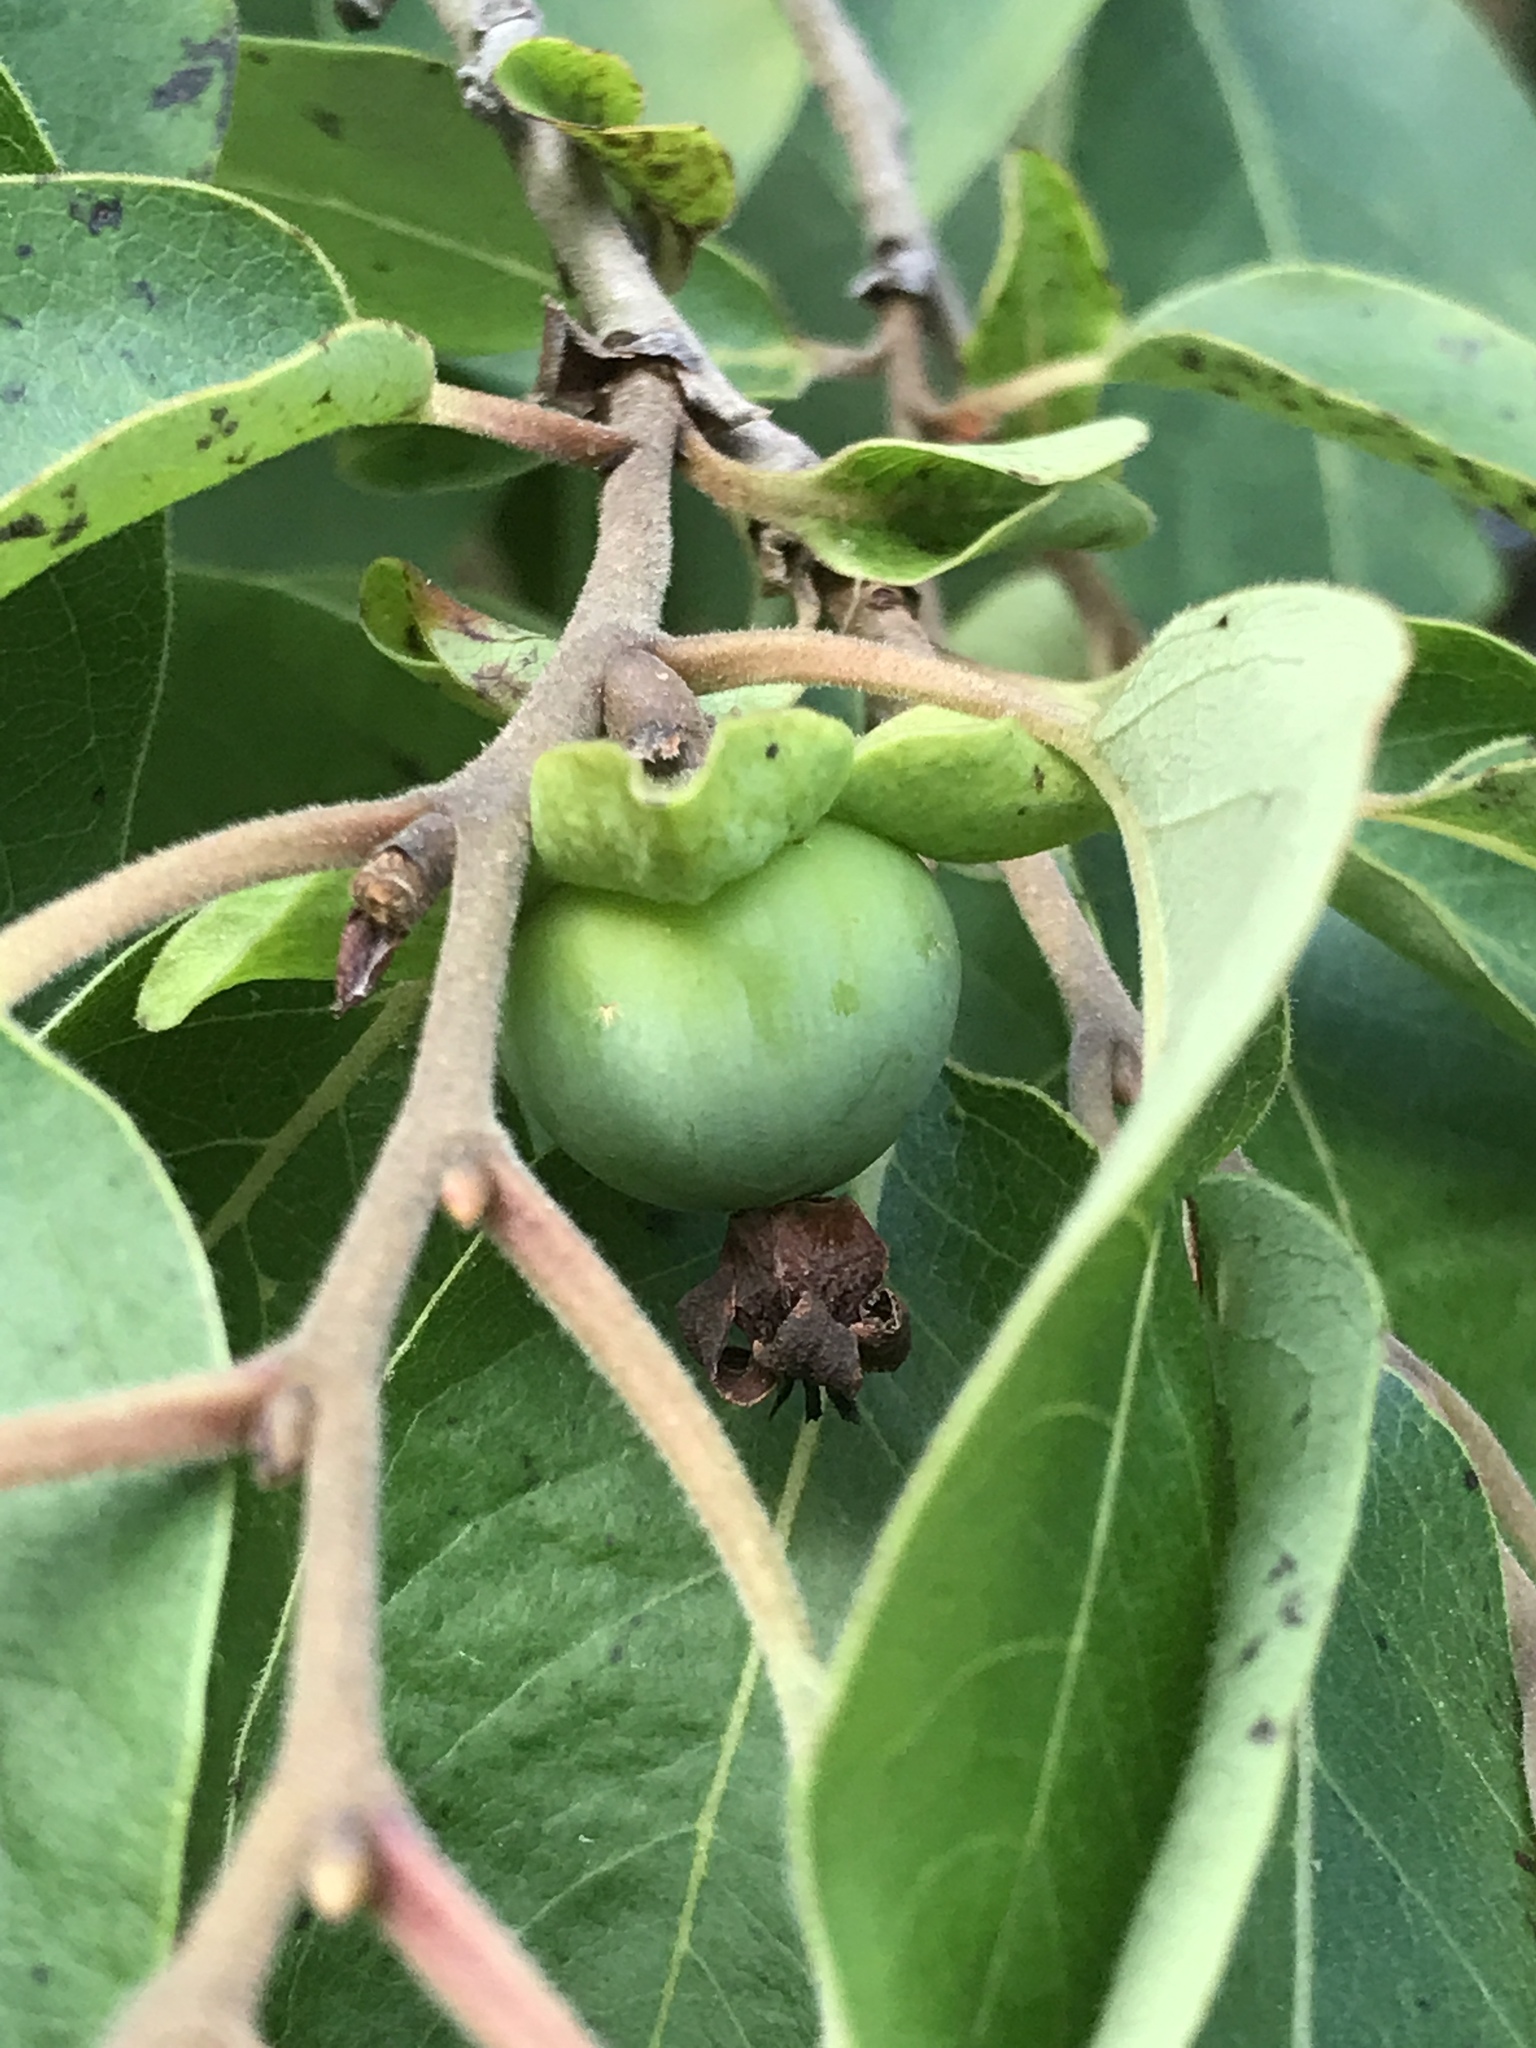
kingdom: Plantae
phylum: Tracheophyta
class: Magnoliopsida
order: Ericales
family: Ebenaceae
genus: Diospyros
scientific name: Diospyros virginiana
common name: Persimmon
